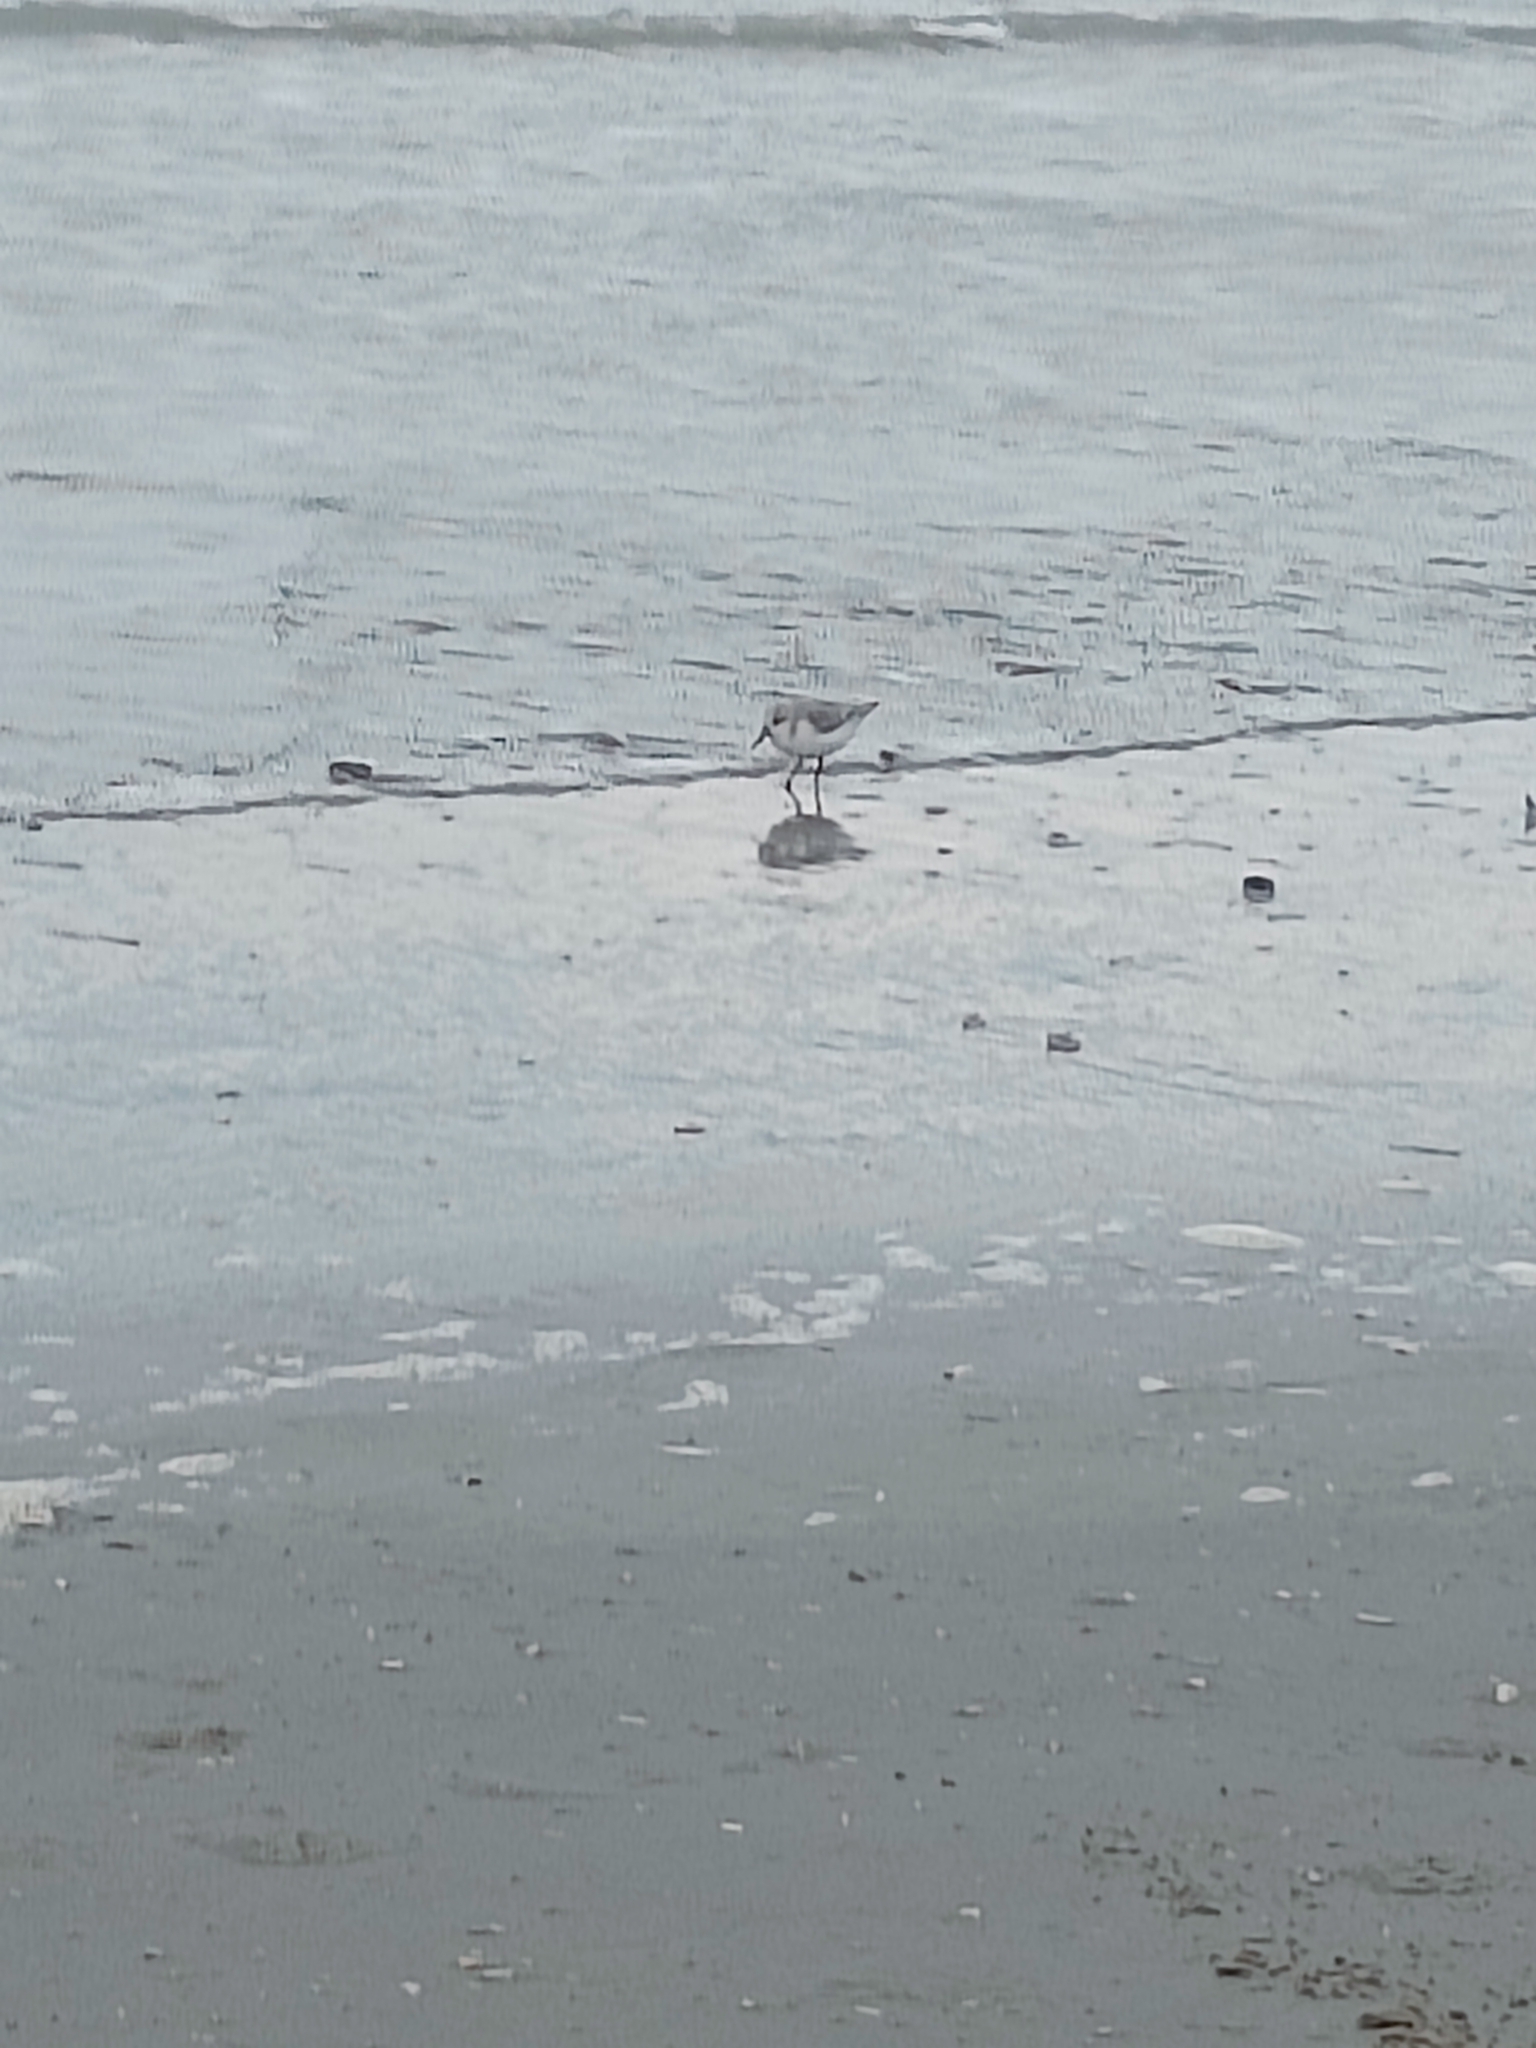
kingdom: Animalia
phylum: Chordata
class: Aves
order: Charadriiformes
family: Scolopacidae
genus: Calidris
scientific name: Calidris alba
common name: Sanderling
